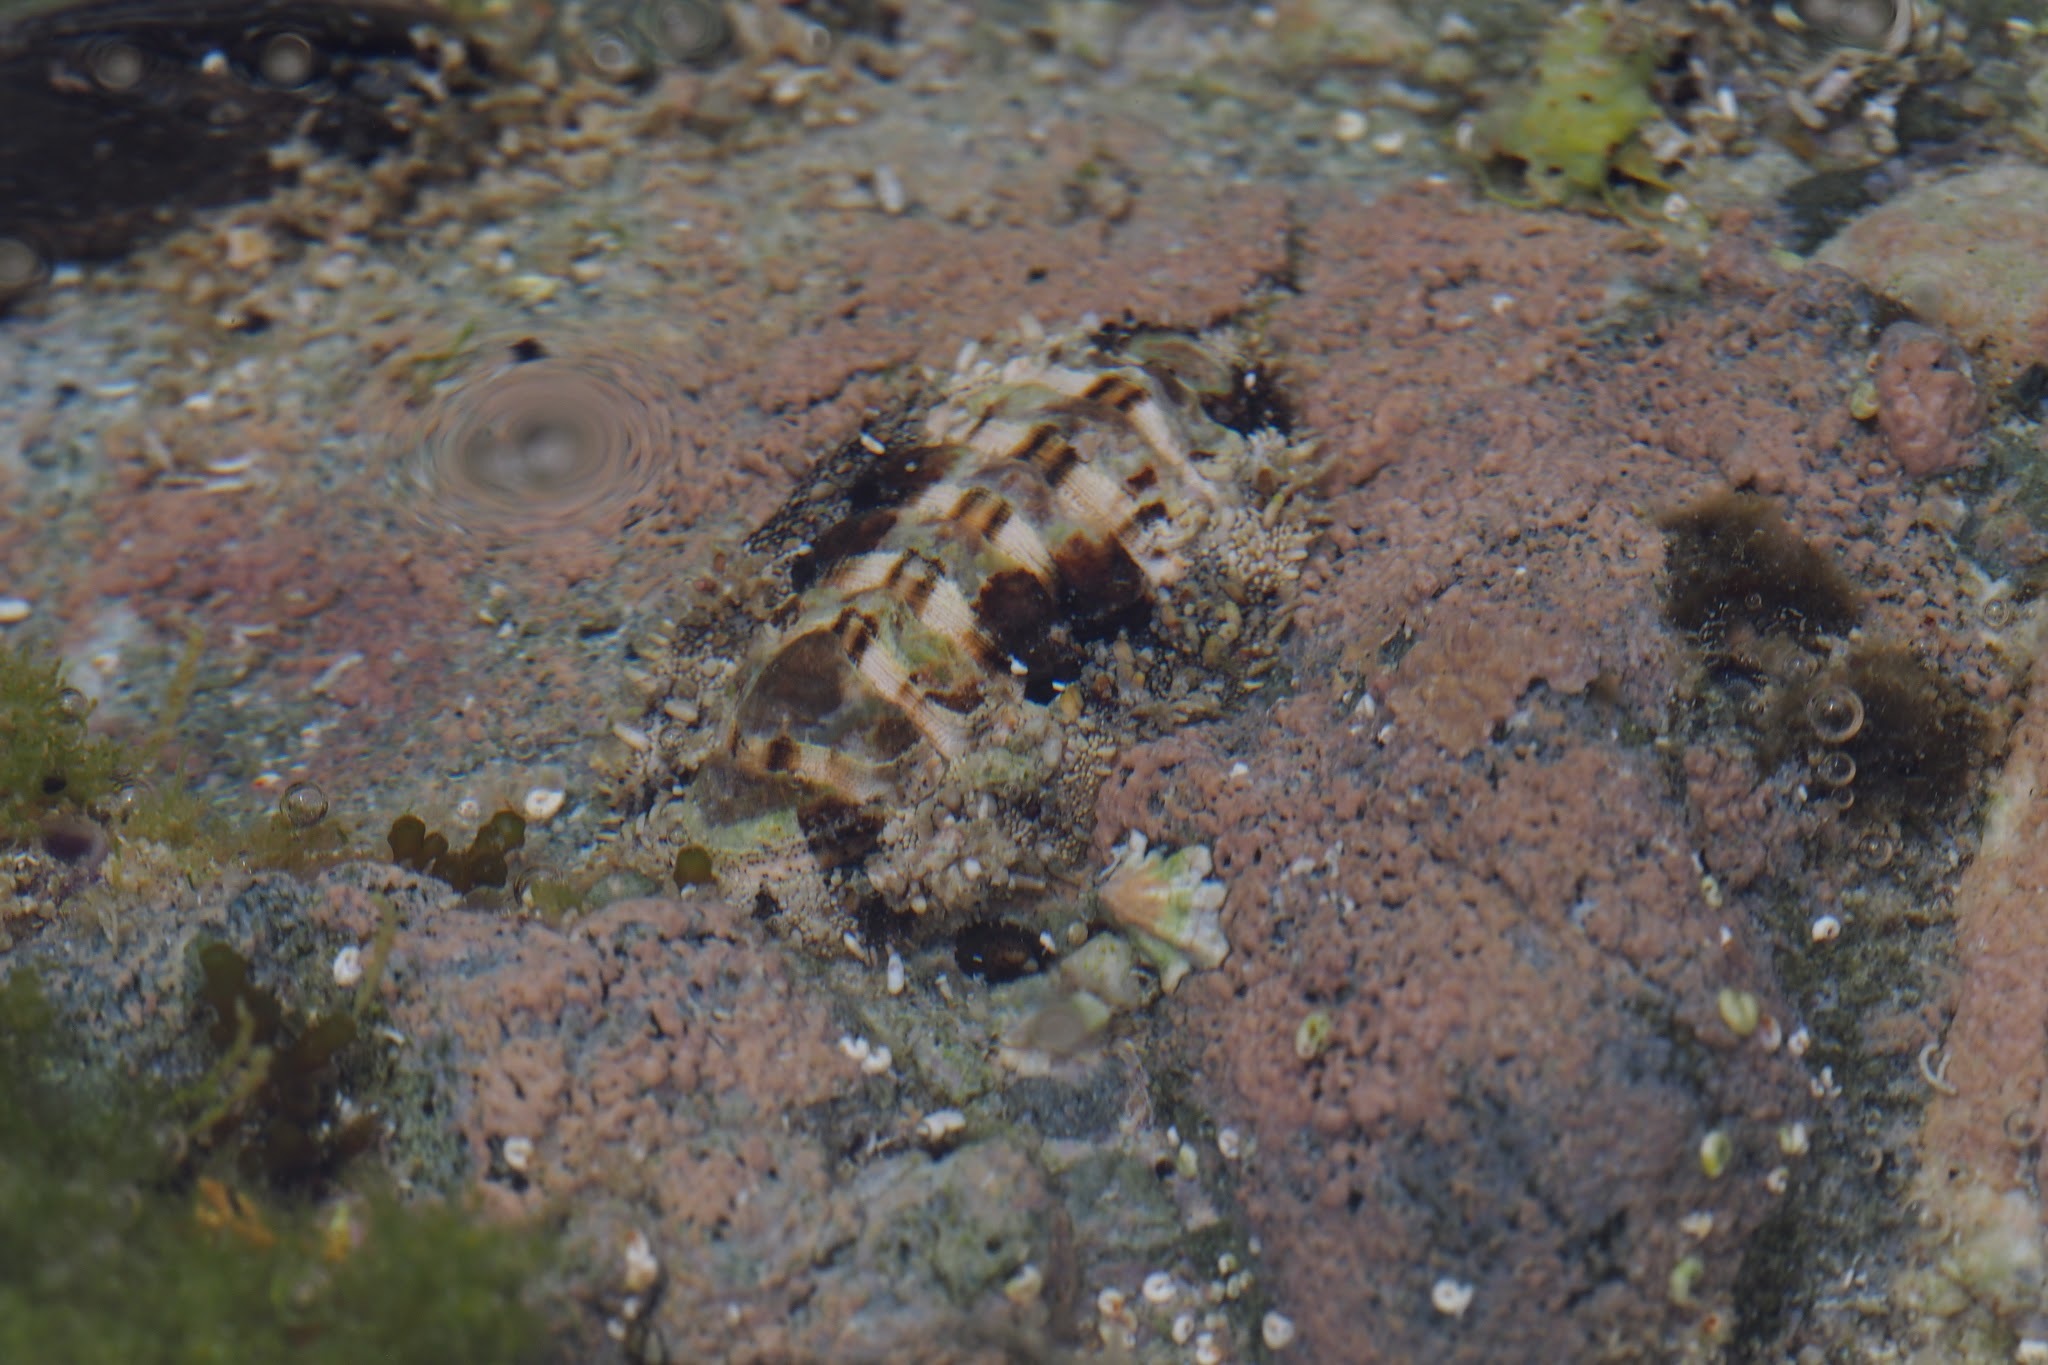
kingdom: Animalia
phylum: Mollusca
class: Polyplacophora
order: Chitonida
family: Chitonidae
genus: Liolophura
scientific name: Liolophura japonica
